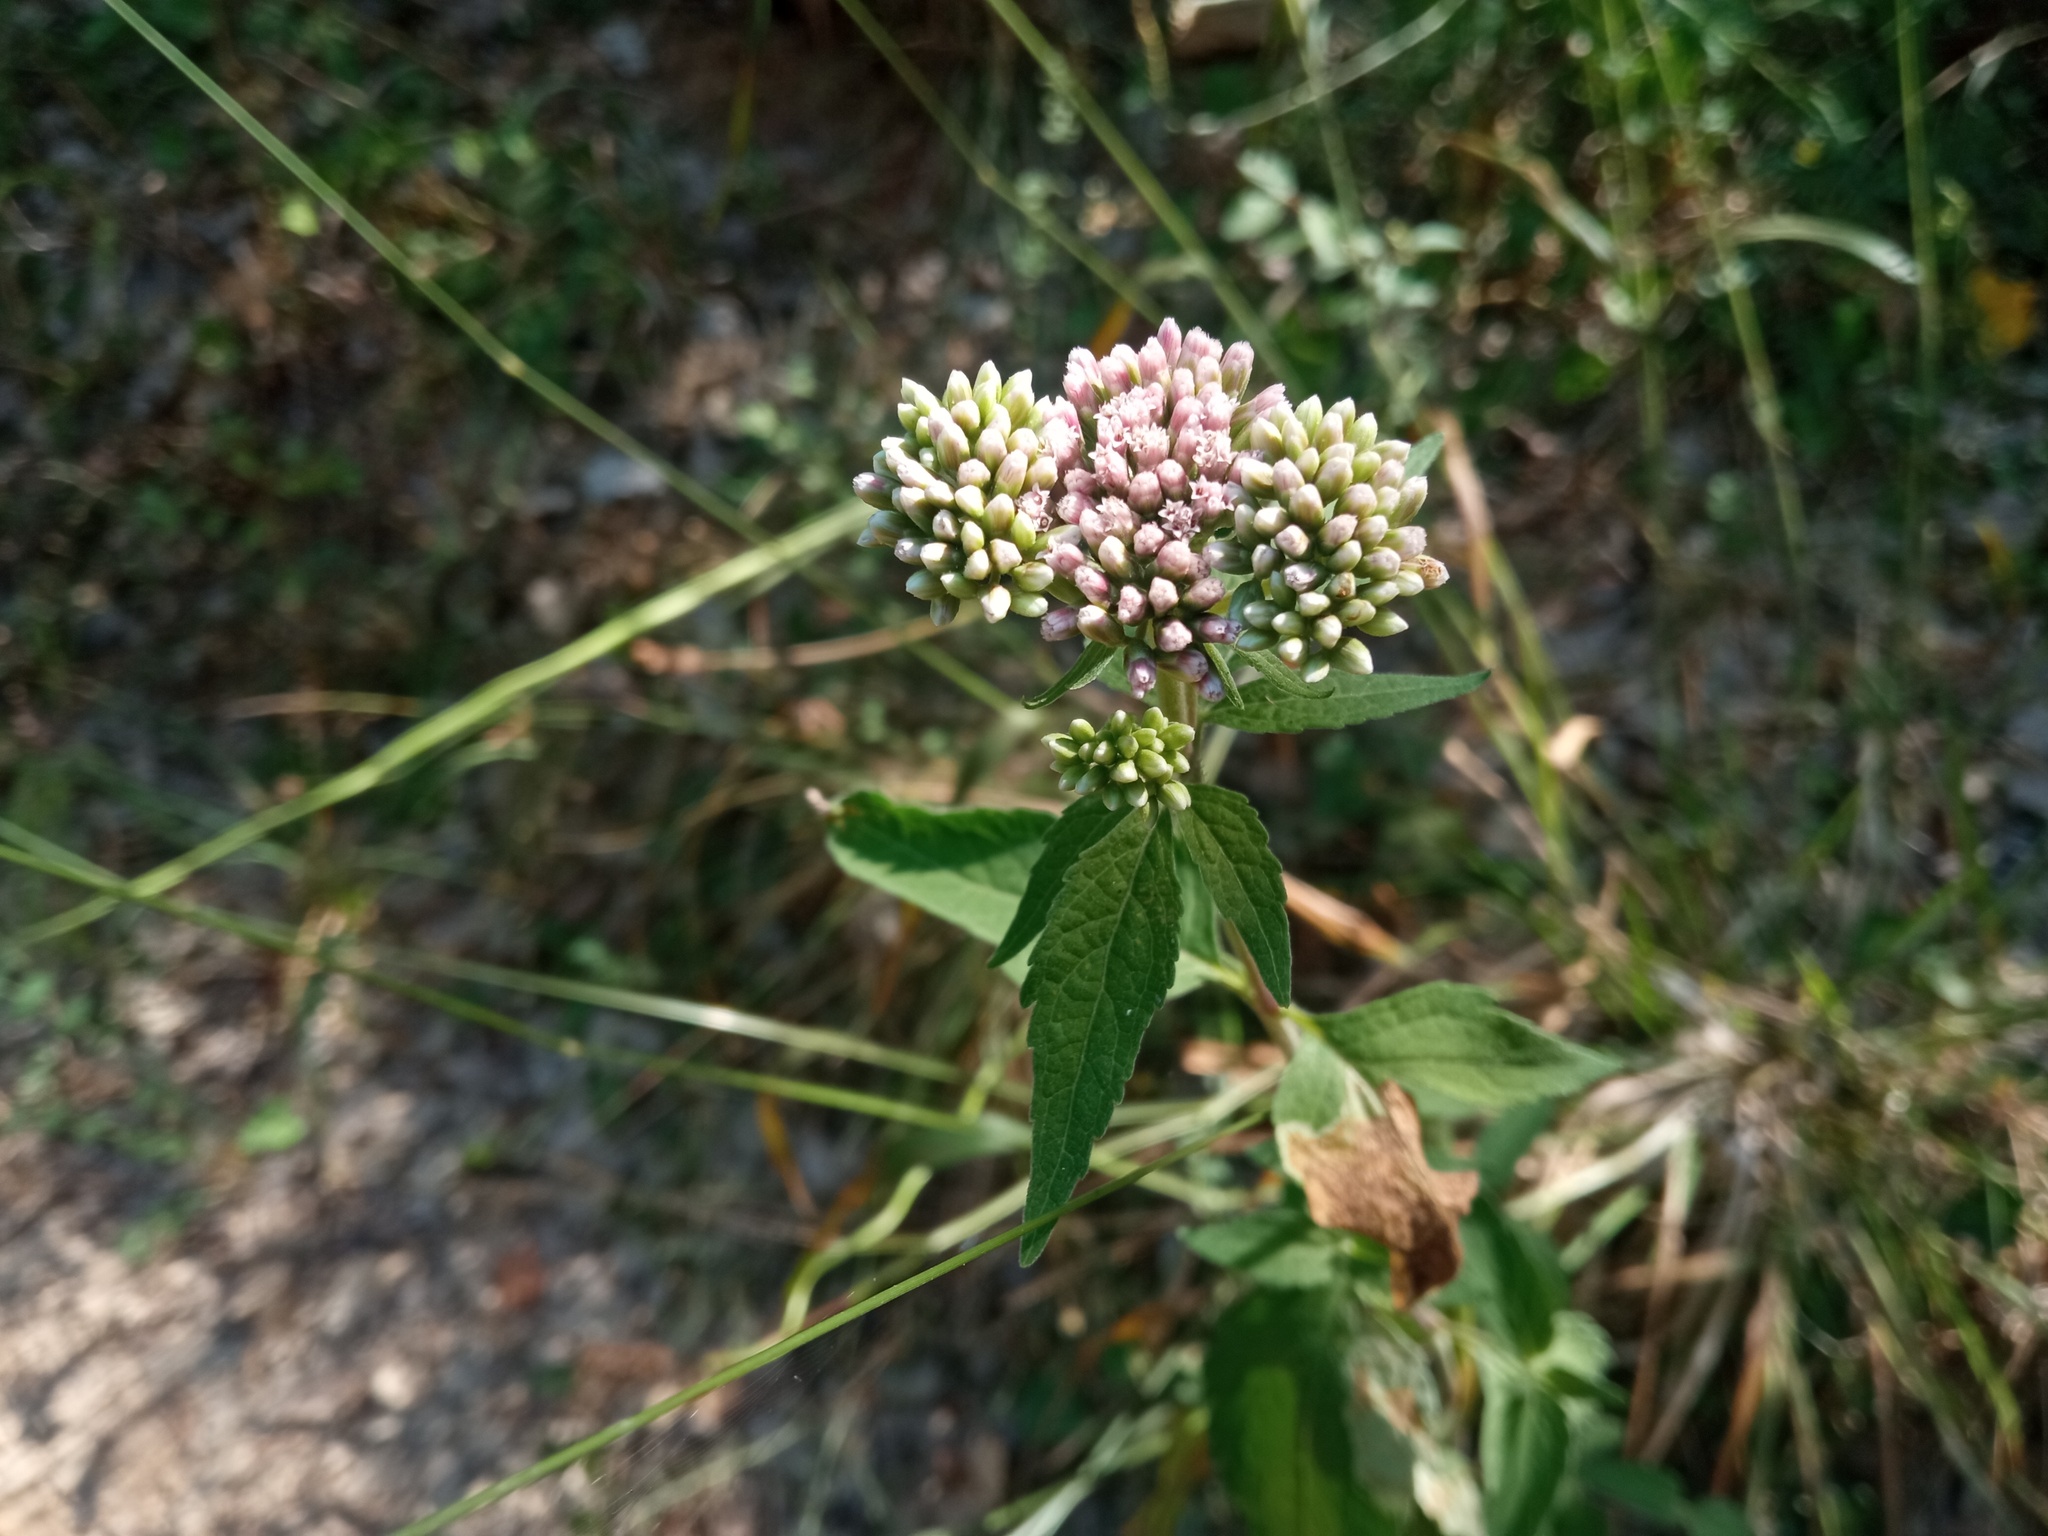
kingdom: Plantae
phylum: Tracheophyta
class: Magnoliopsida
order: Asterales
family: Asteraceae
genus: Eupatorium
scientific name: Eupatorium cannabinum
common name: Hemp-agrimony
